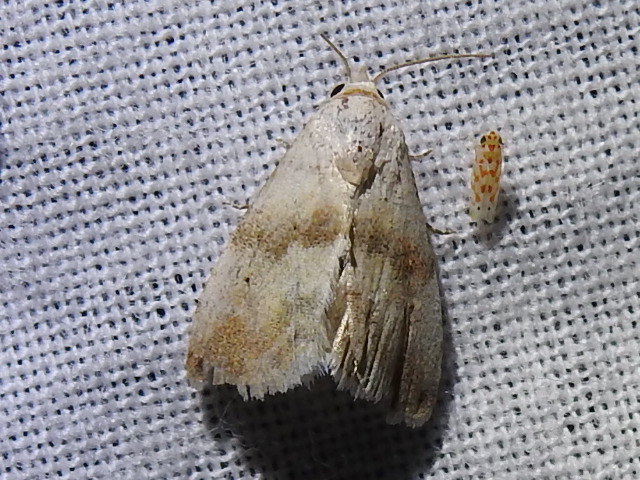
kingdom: Animalia
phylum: Arthropoda
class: Insecta
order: Lepidoptera
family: Noctuidae
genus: Eublemma
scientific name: Eublemma minima
